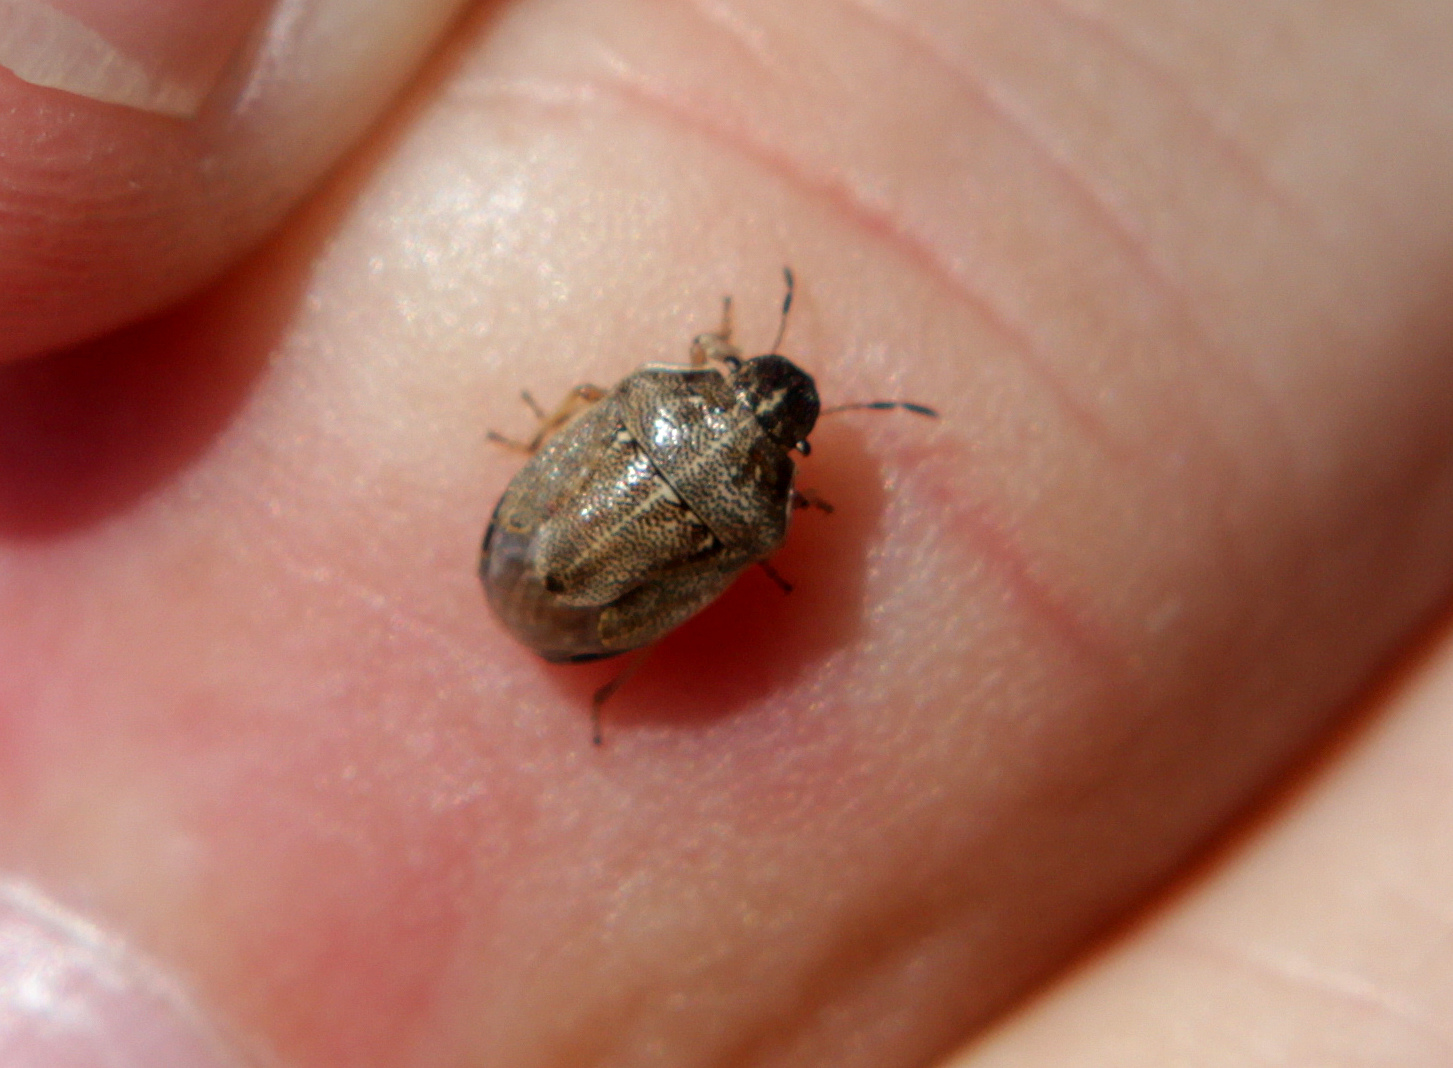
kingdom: Animalia
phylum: Arthropoda
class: Insecta
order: Hemiptera
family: Pentatomidae
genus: Neottiglossa
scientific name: Neottiglossa pusilla
